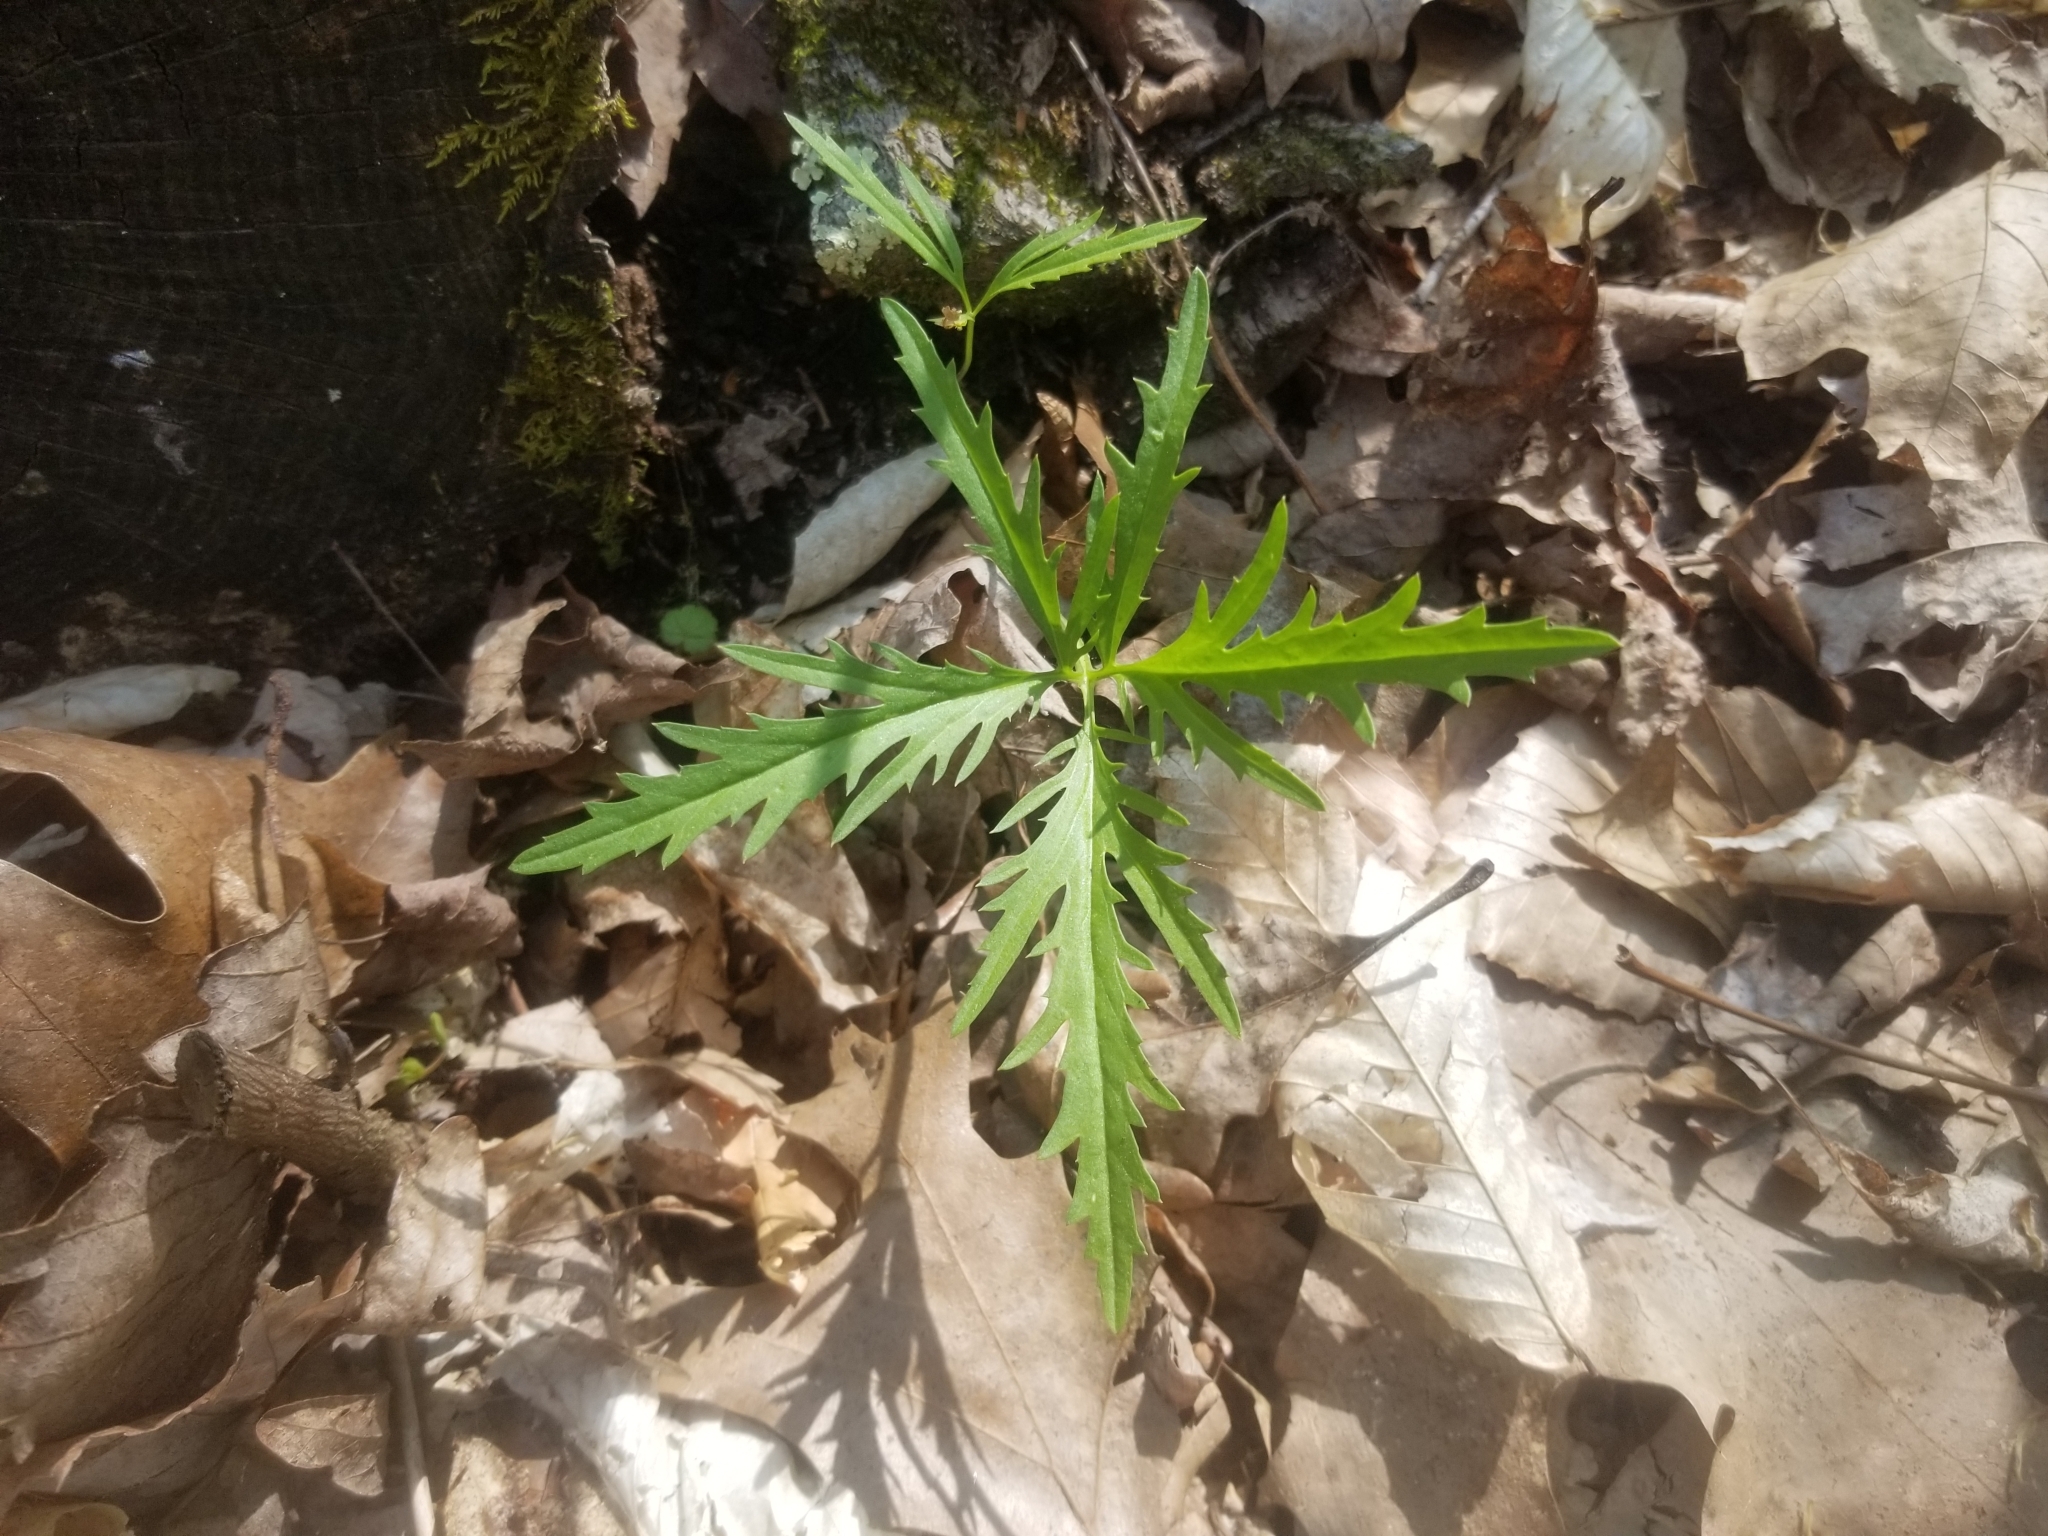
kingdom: Plantae
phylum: Tracheophyta
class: Magnoliopsida
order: Brassicales
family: Brassicaceae
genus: Cardamine
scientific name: Cardamine concatenata
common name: Cut-leaf toothcup
